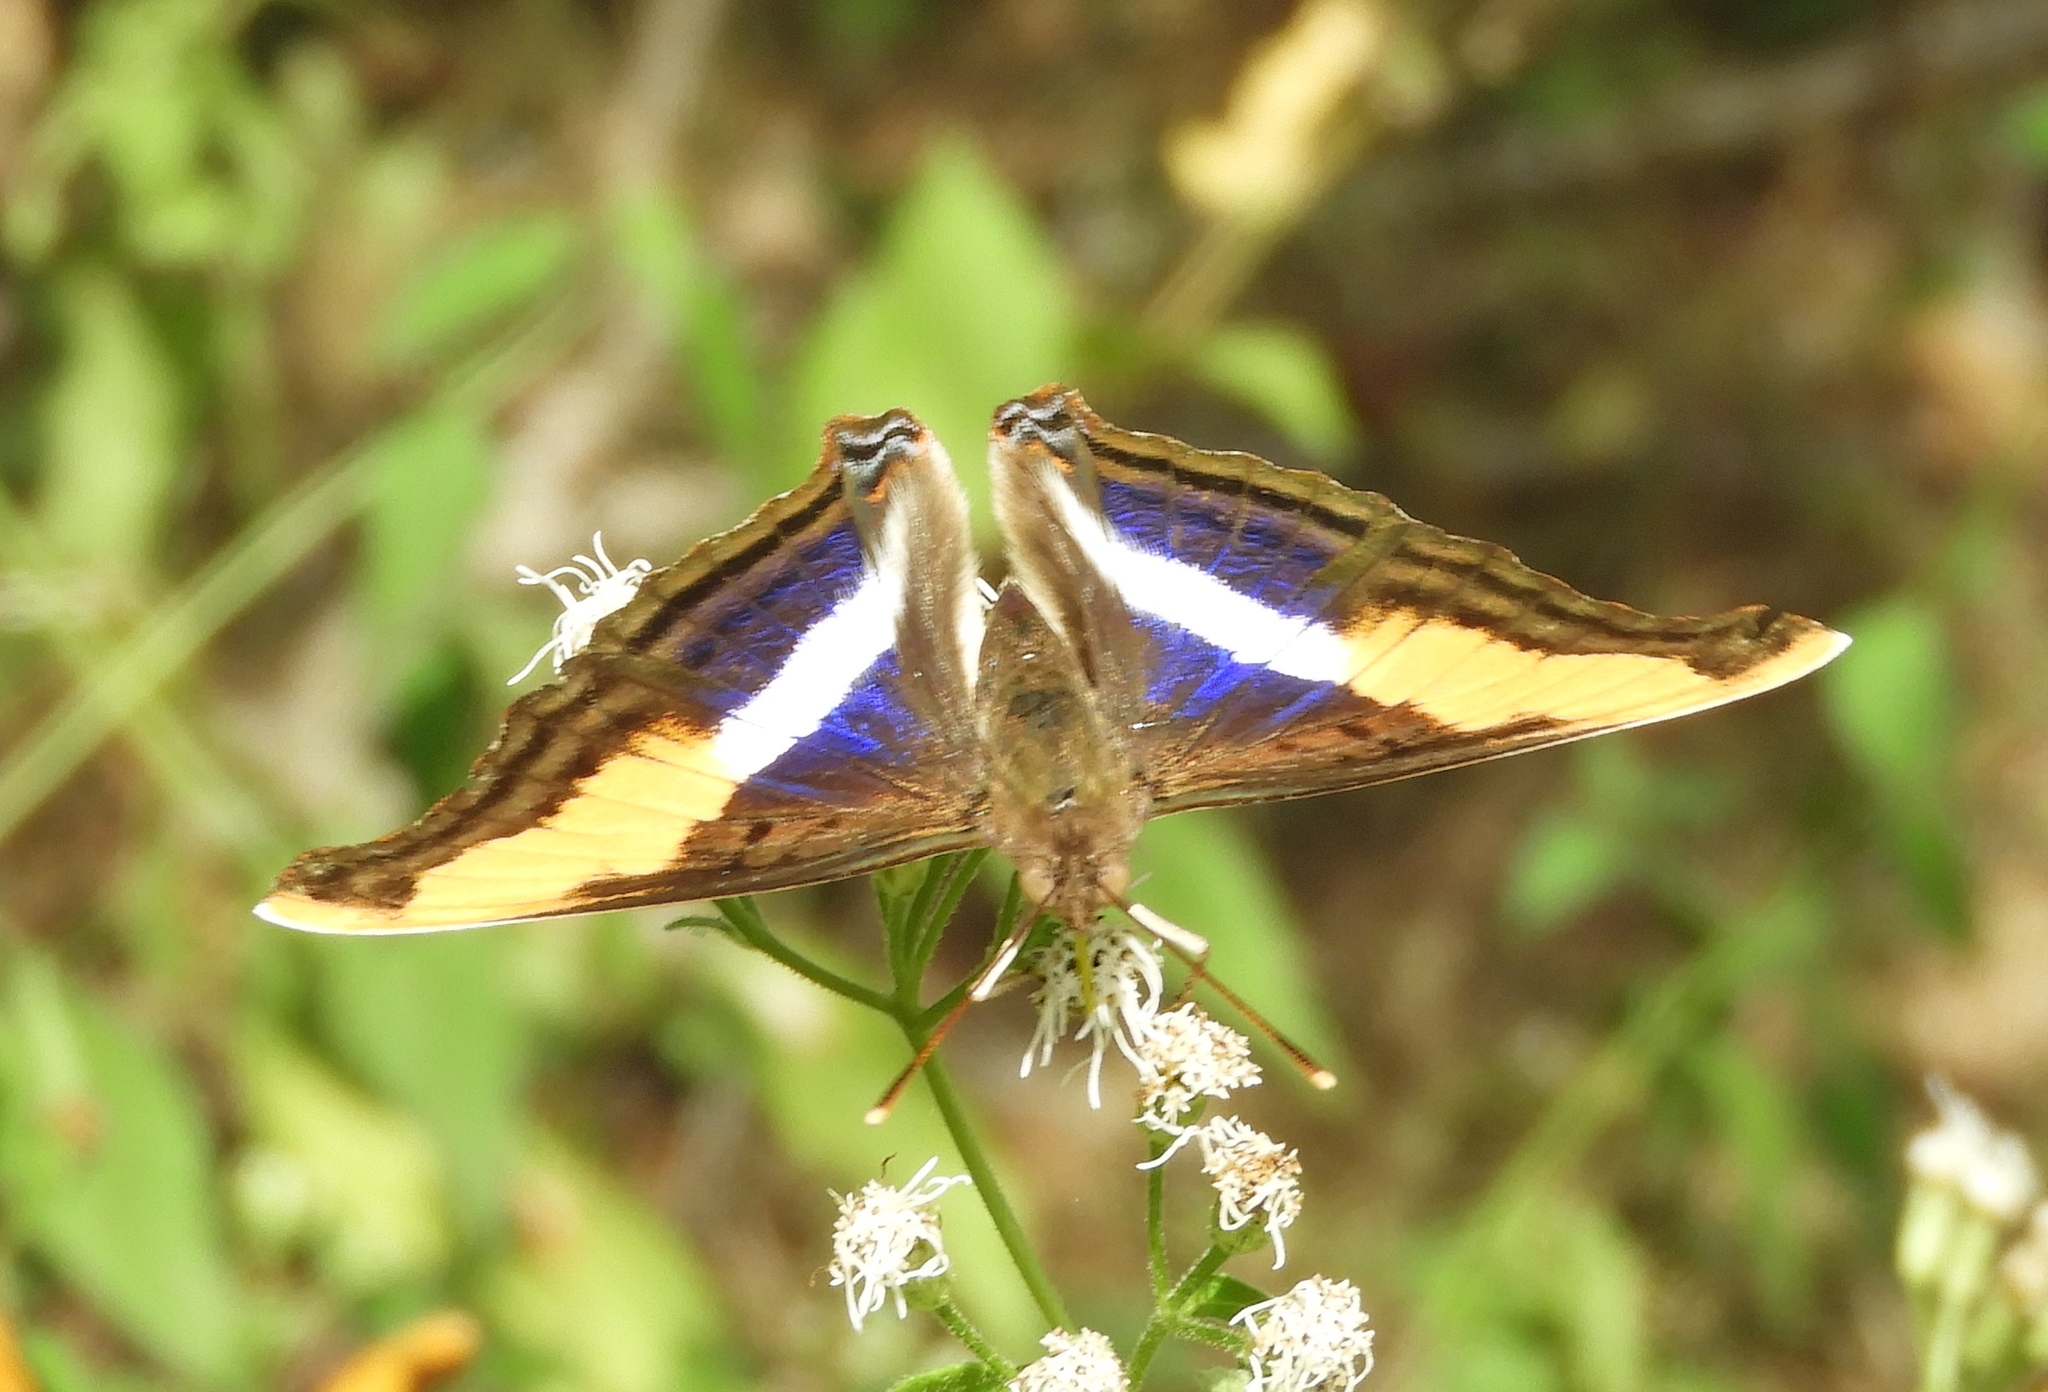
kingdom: Animalia
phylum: Arthropoda
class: Insecta
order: Lepidoptera
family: Nymphalidae
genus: Doxocopa
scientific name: Doxocopa laure
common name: Silver emperor
